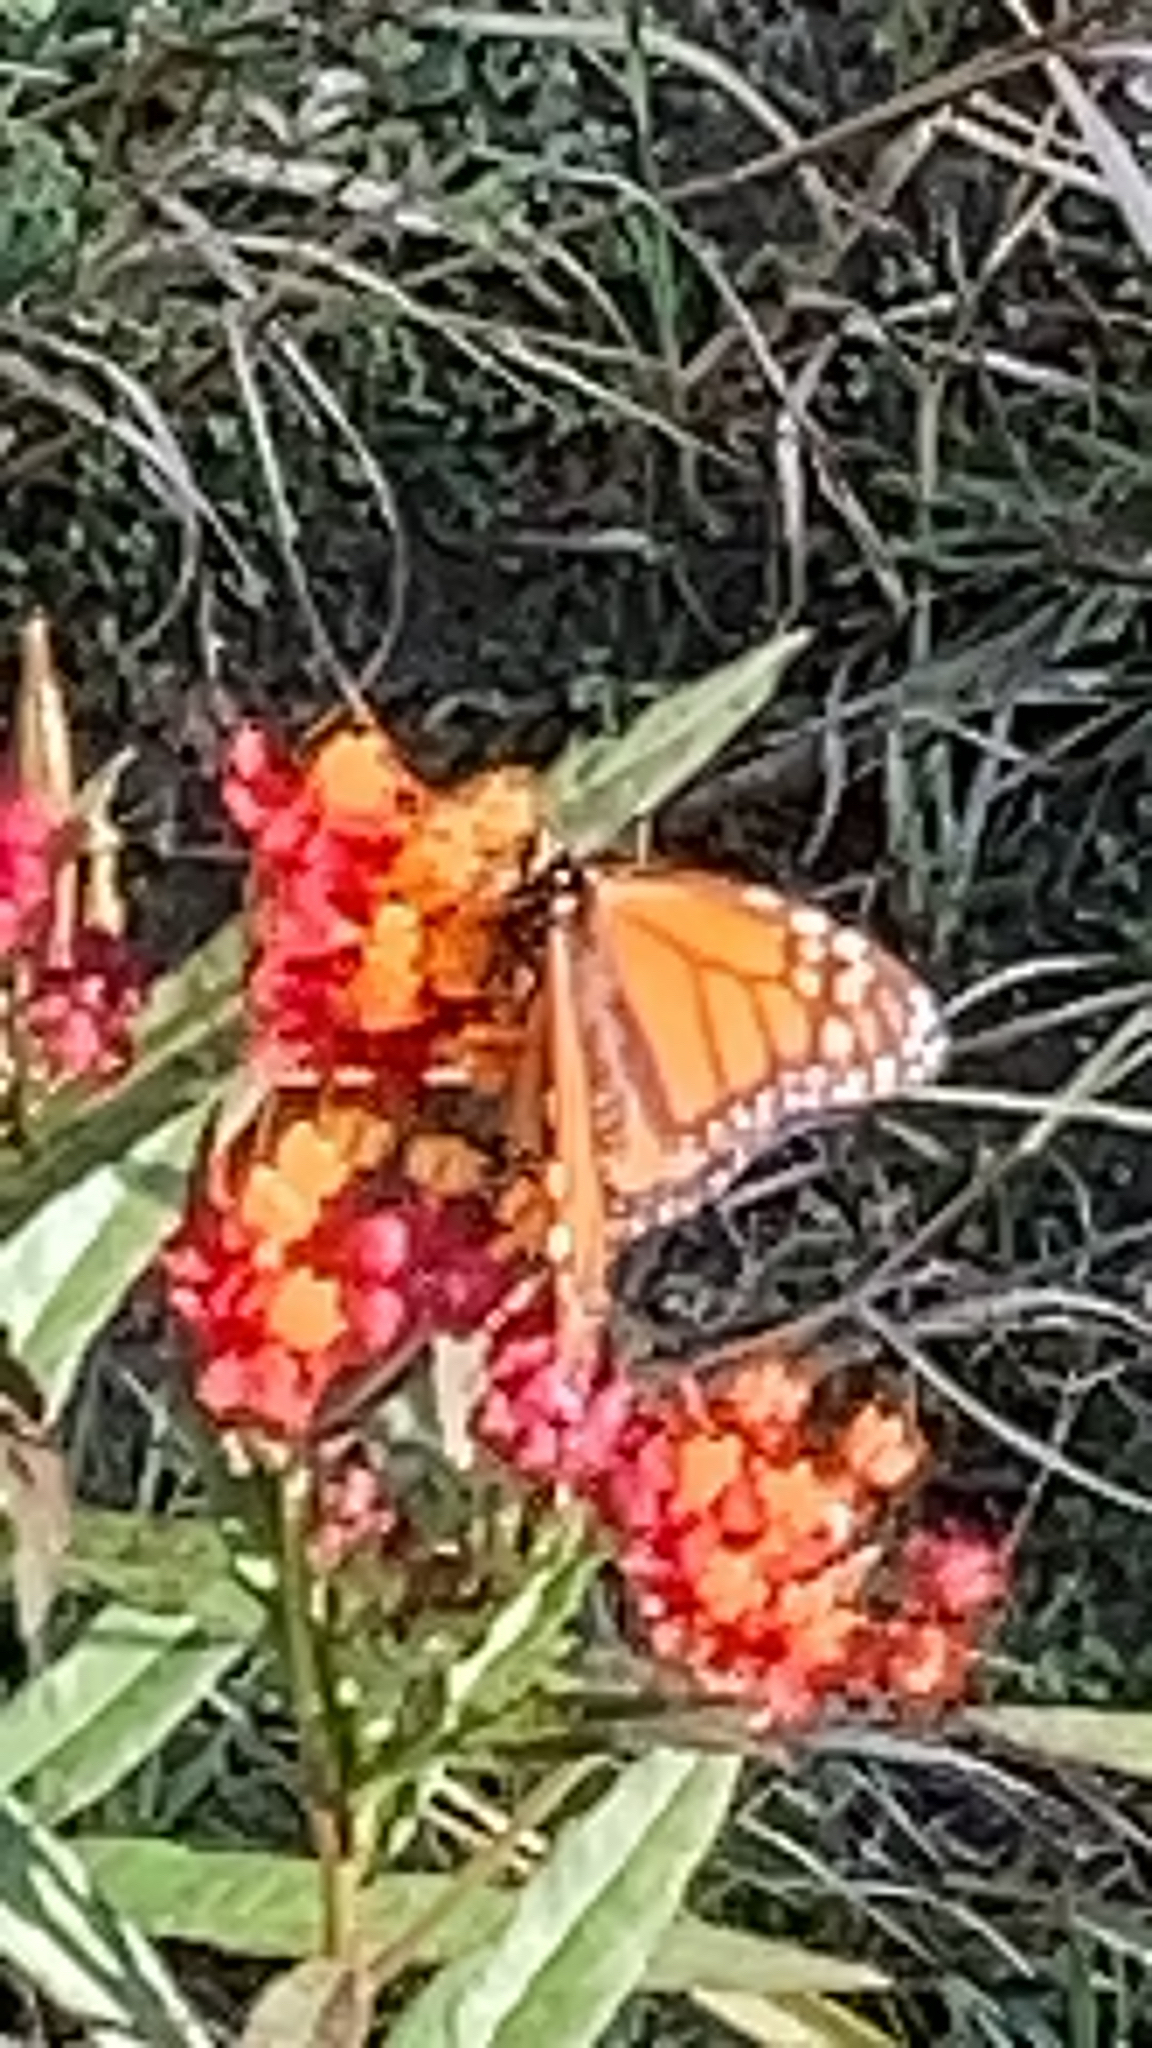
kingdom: Animalia
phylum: Arthropoda
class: Insecta
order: Lepidoptera
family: Nymphalidae
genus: Danaus
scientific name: Danaus plexippus
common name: Monarch
